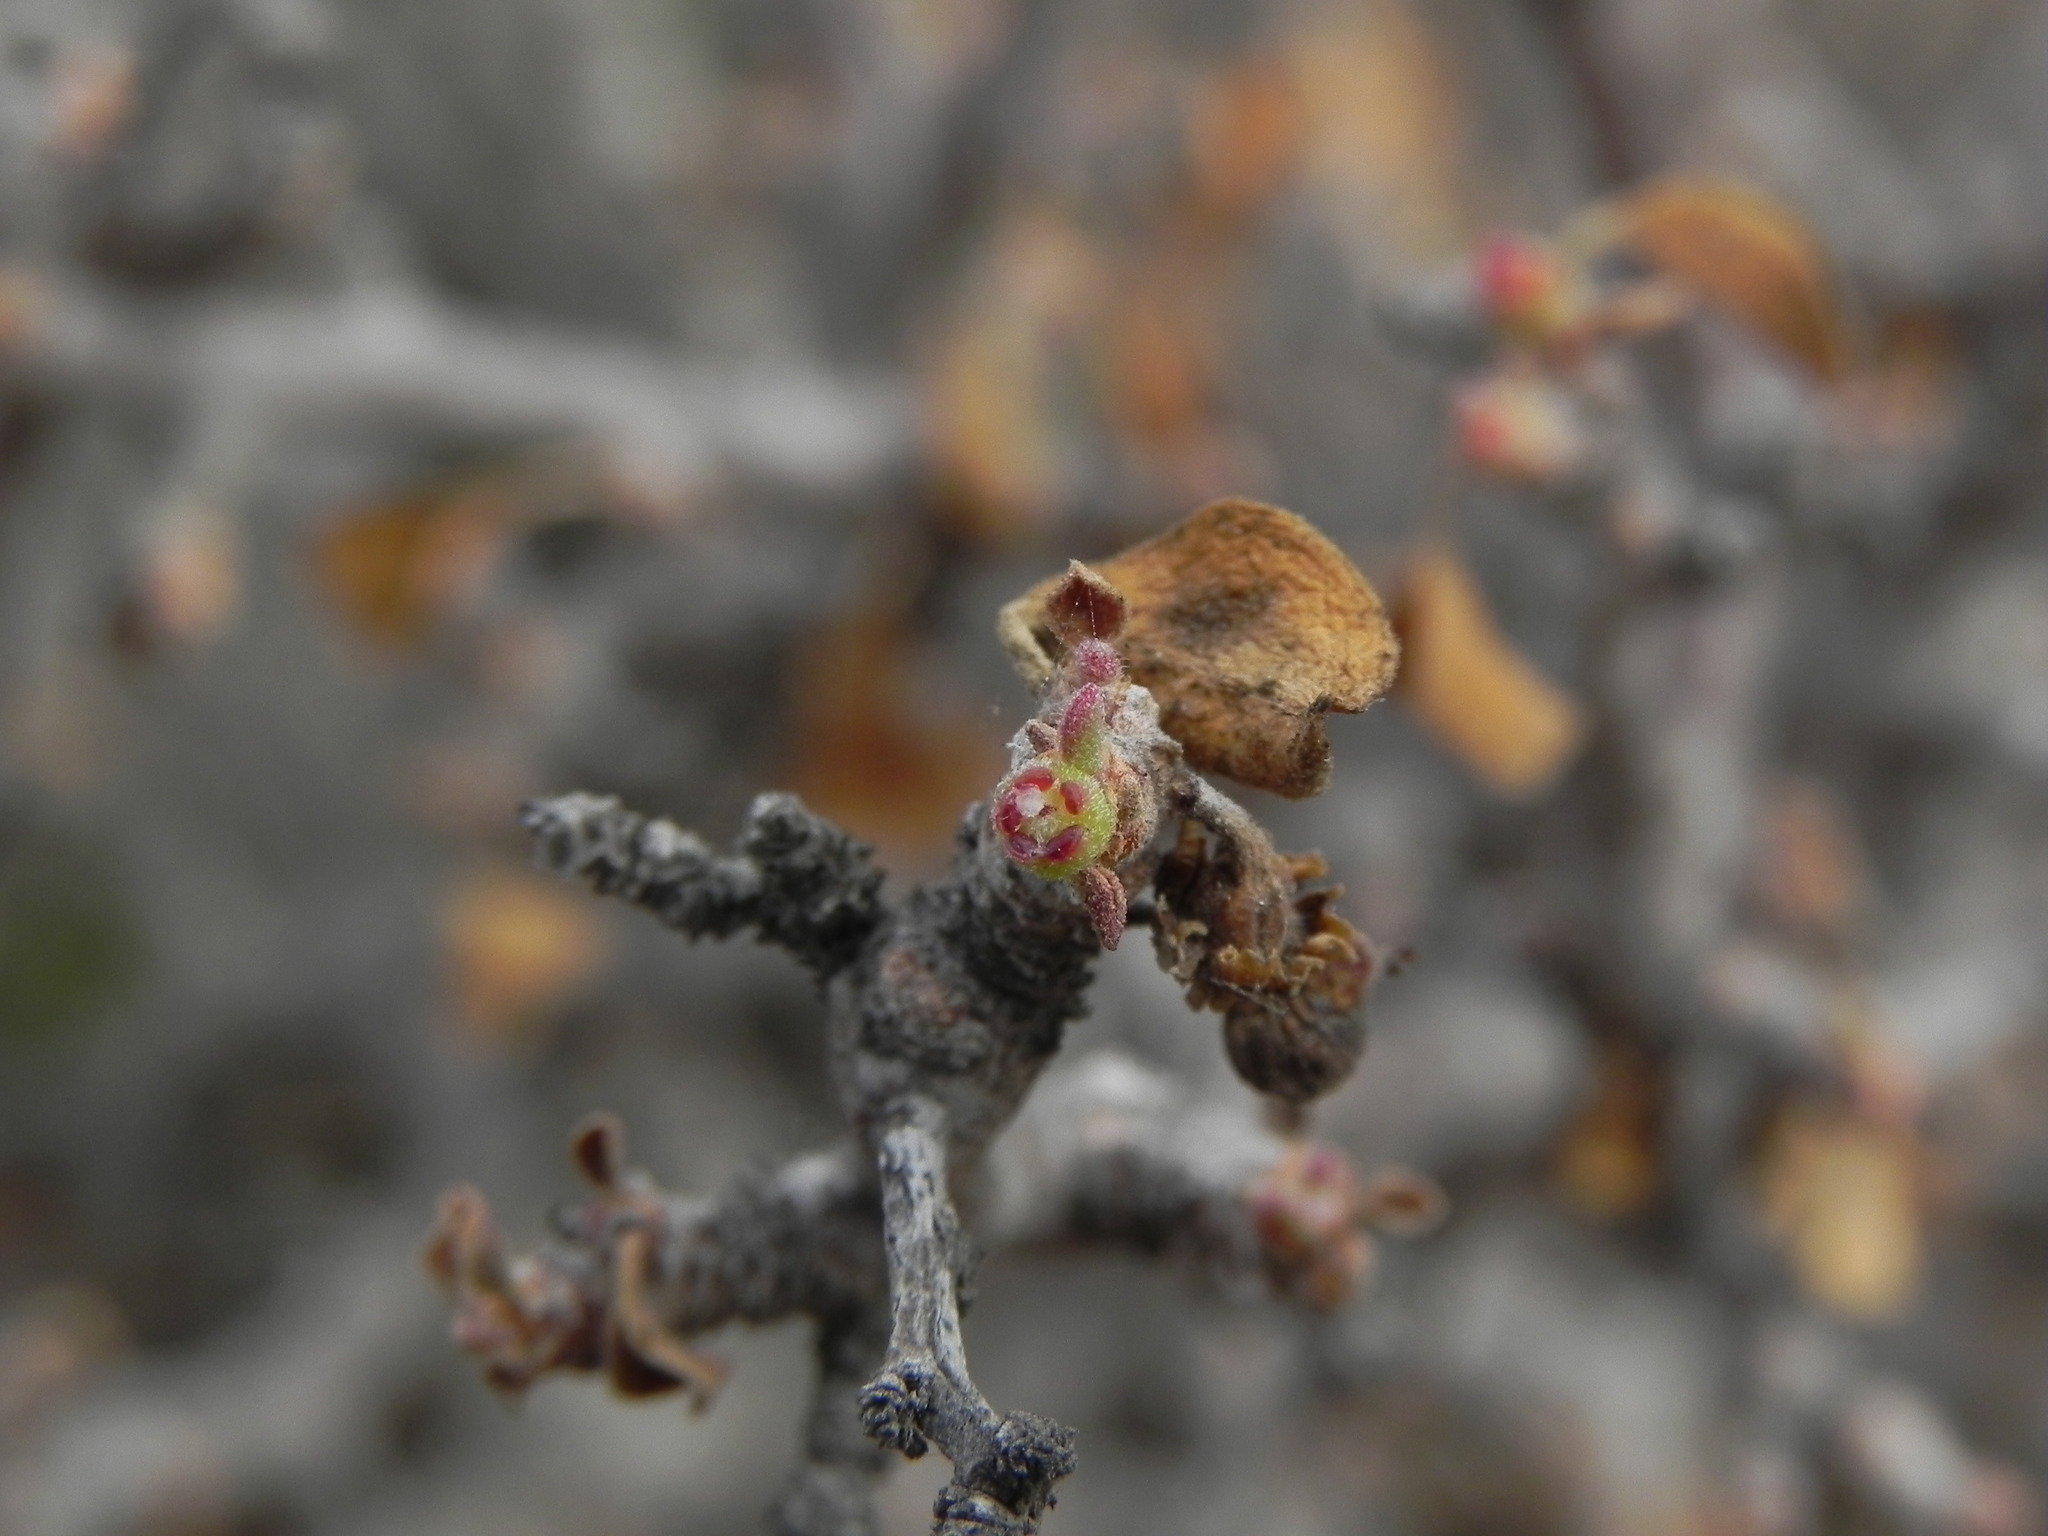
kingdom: Plantae
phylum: Tracheophyta
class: Magnoliopsida
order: Malpighiales
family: Euphorbiaceae
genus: Euphorbia
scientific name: Euphorbia misera
